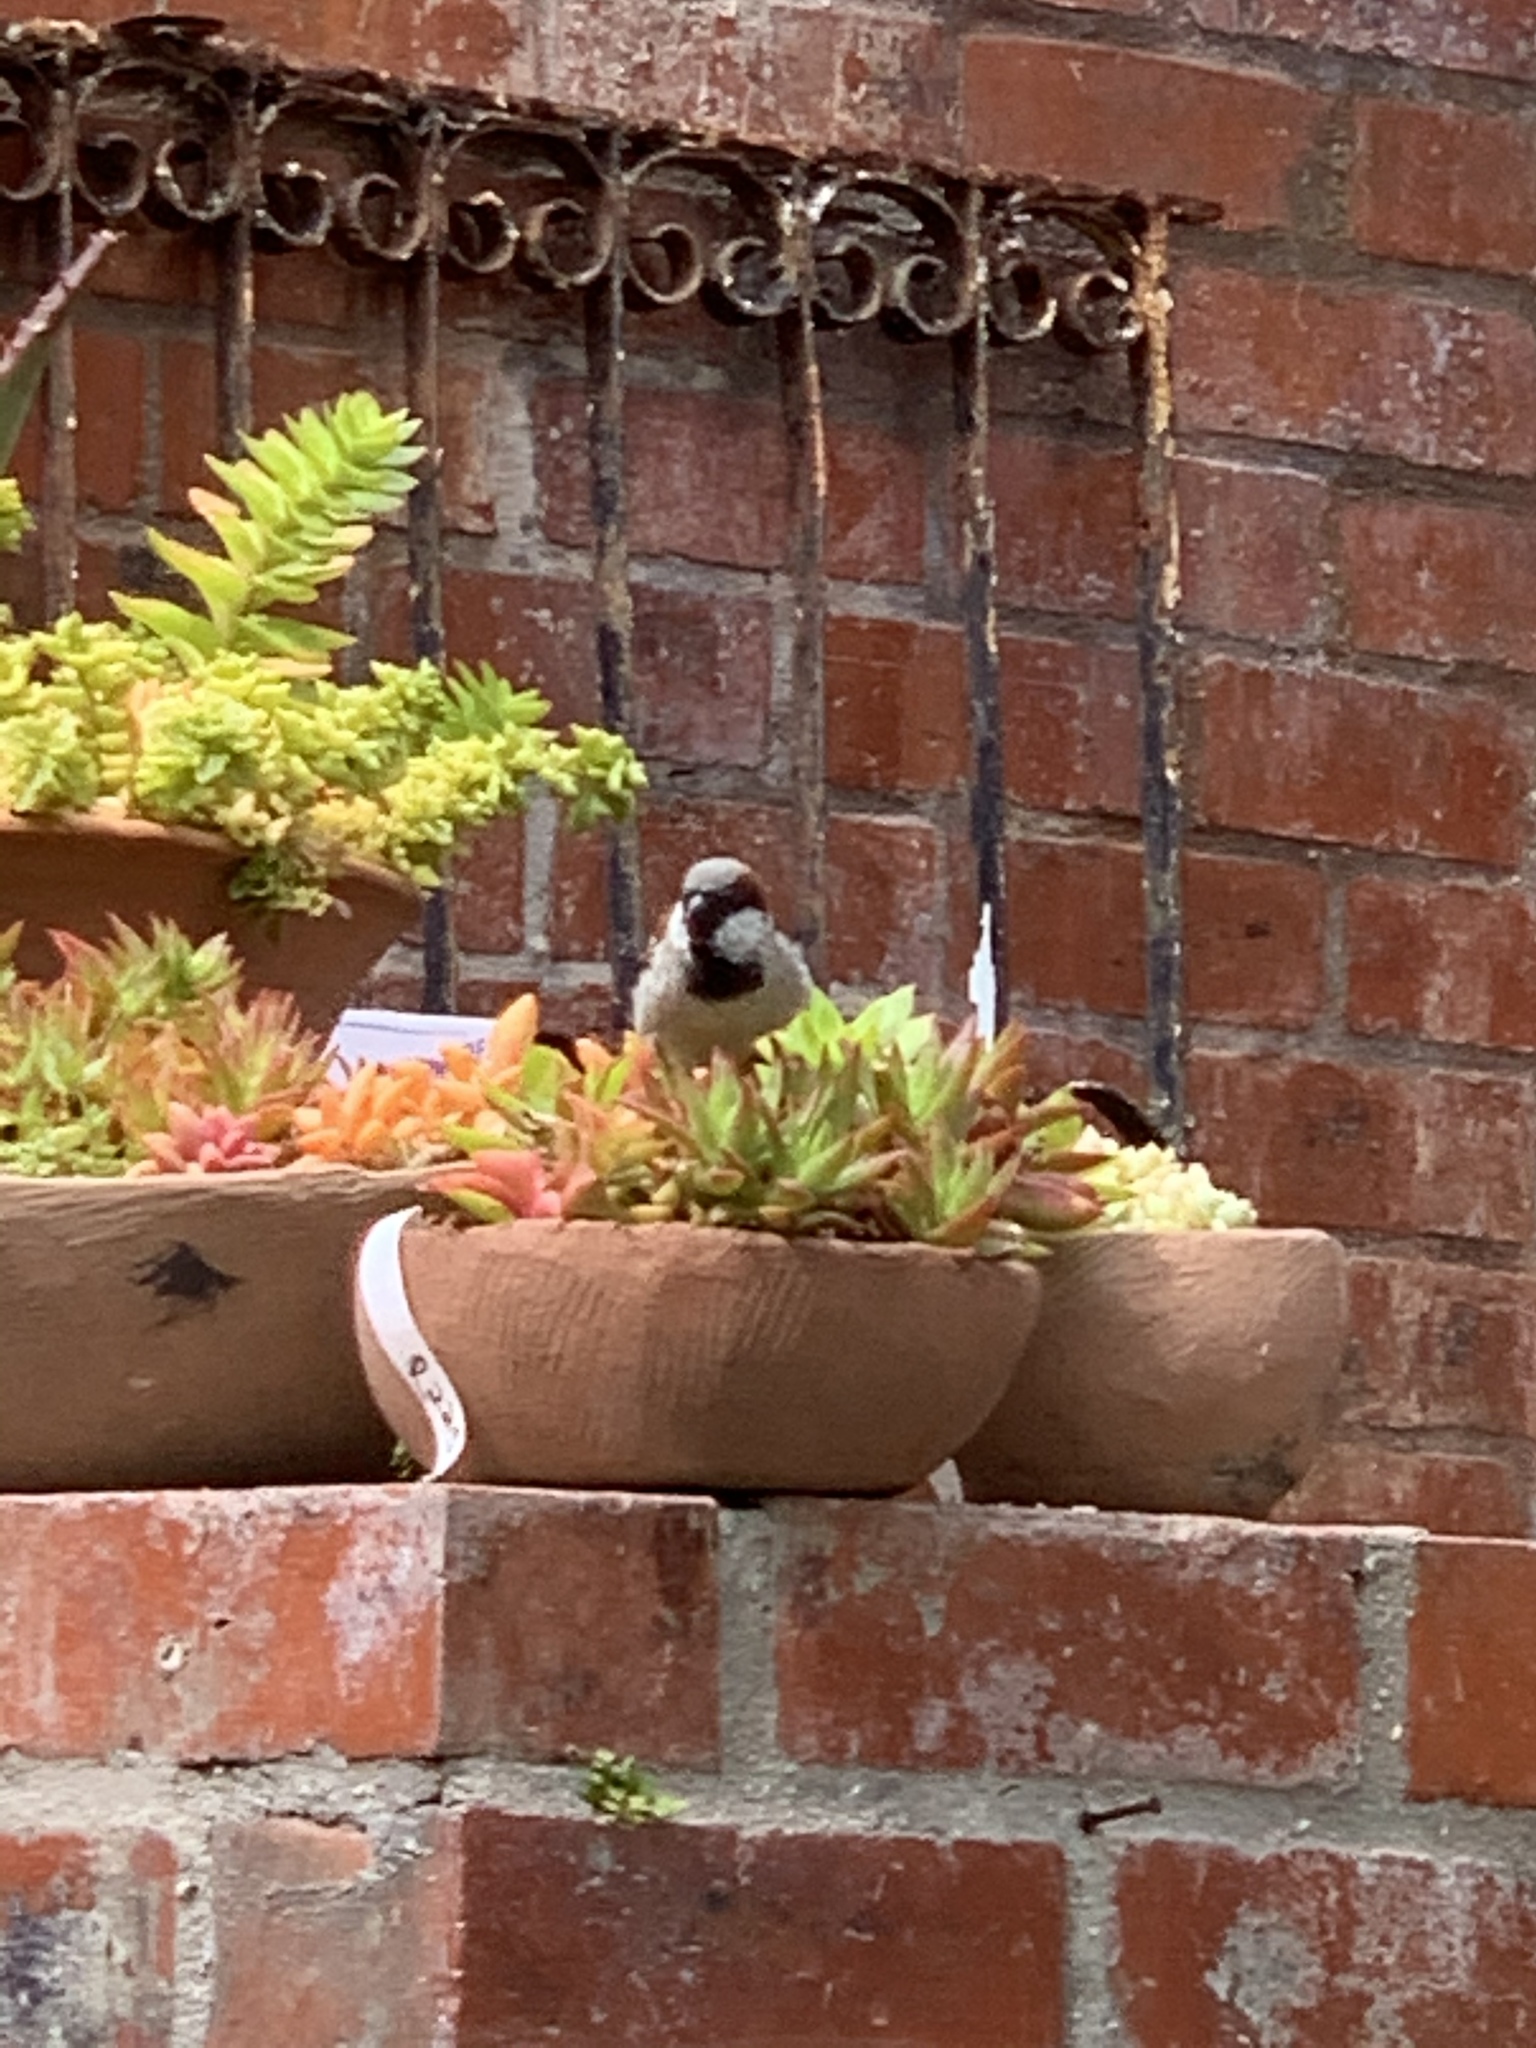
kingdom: Animalia
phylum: Chordata
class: Aves
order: Passeriformes
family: Passeridae
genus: Passer
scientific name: Passer domesticus
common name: House sparrow
